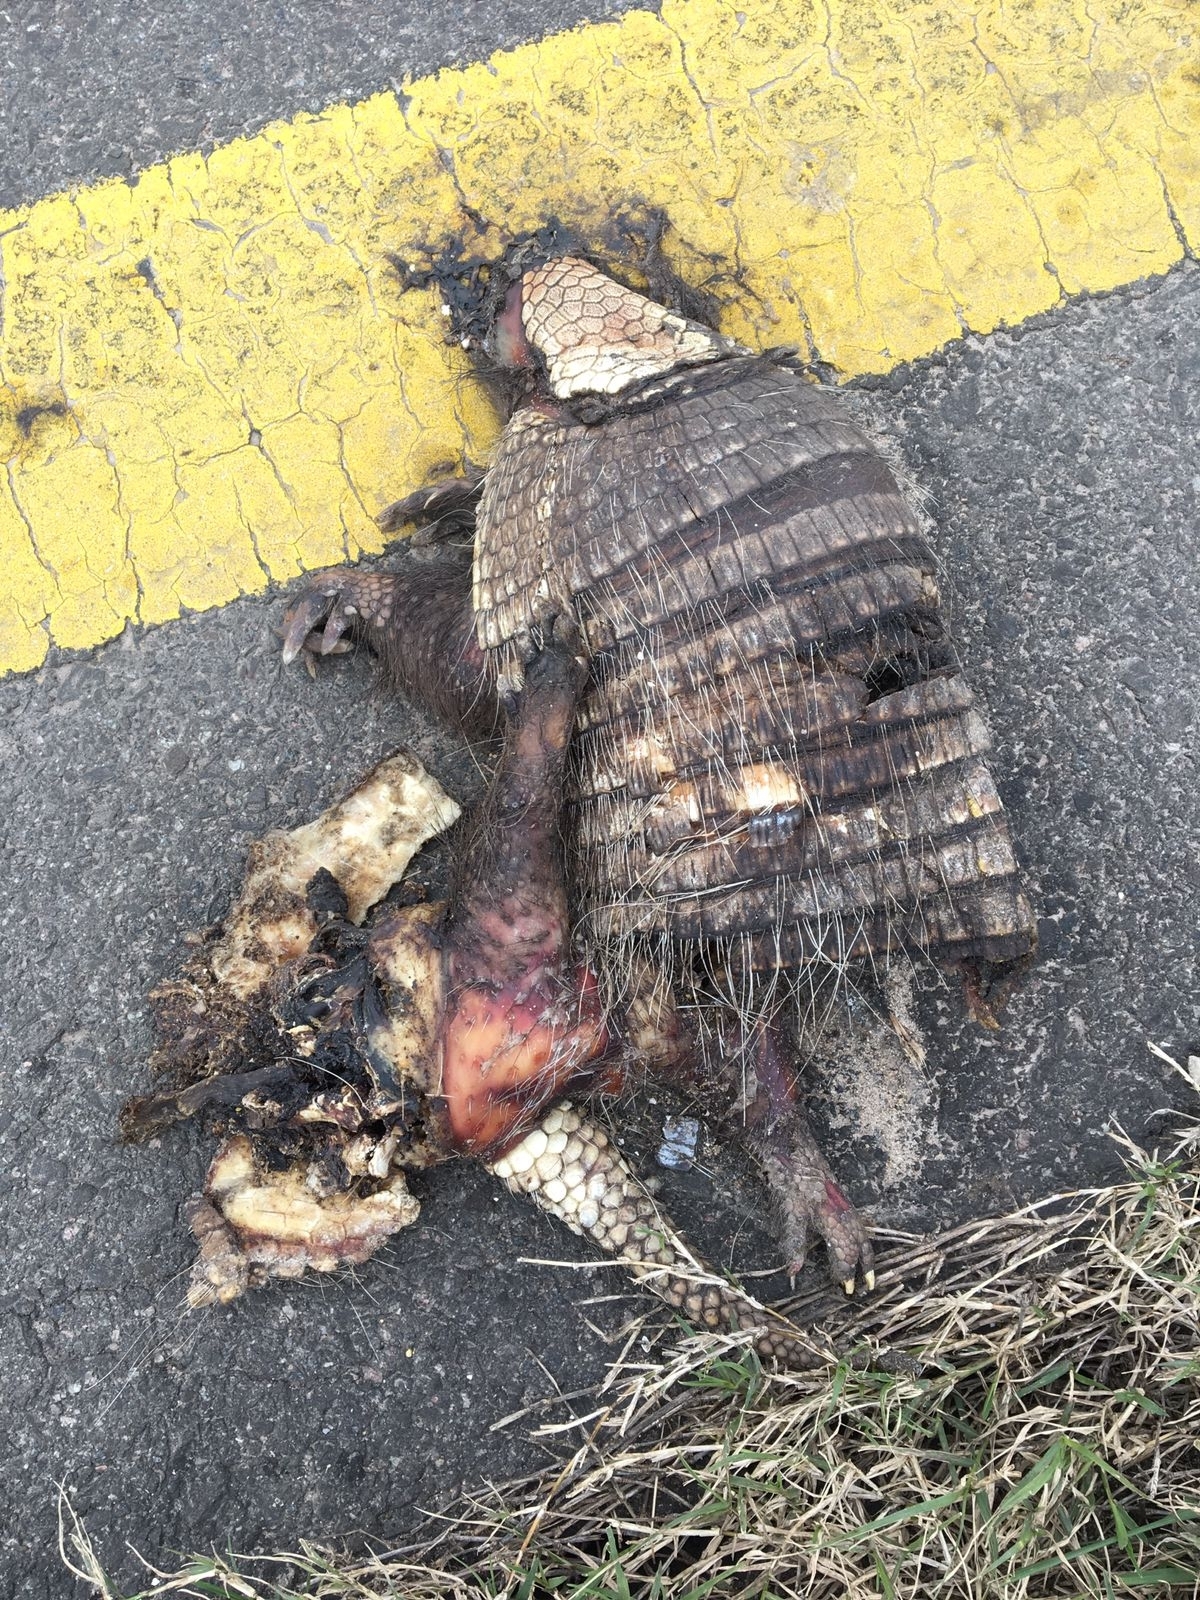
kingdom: Animalia
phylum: Chordata
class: Mammalia
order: Cingulata
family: Dasypodidae
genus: Euphractus
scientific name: Euphractus sexcinctus
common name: Six-banded armadillo
